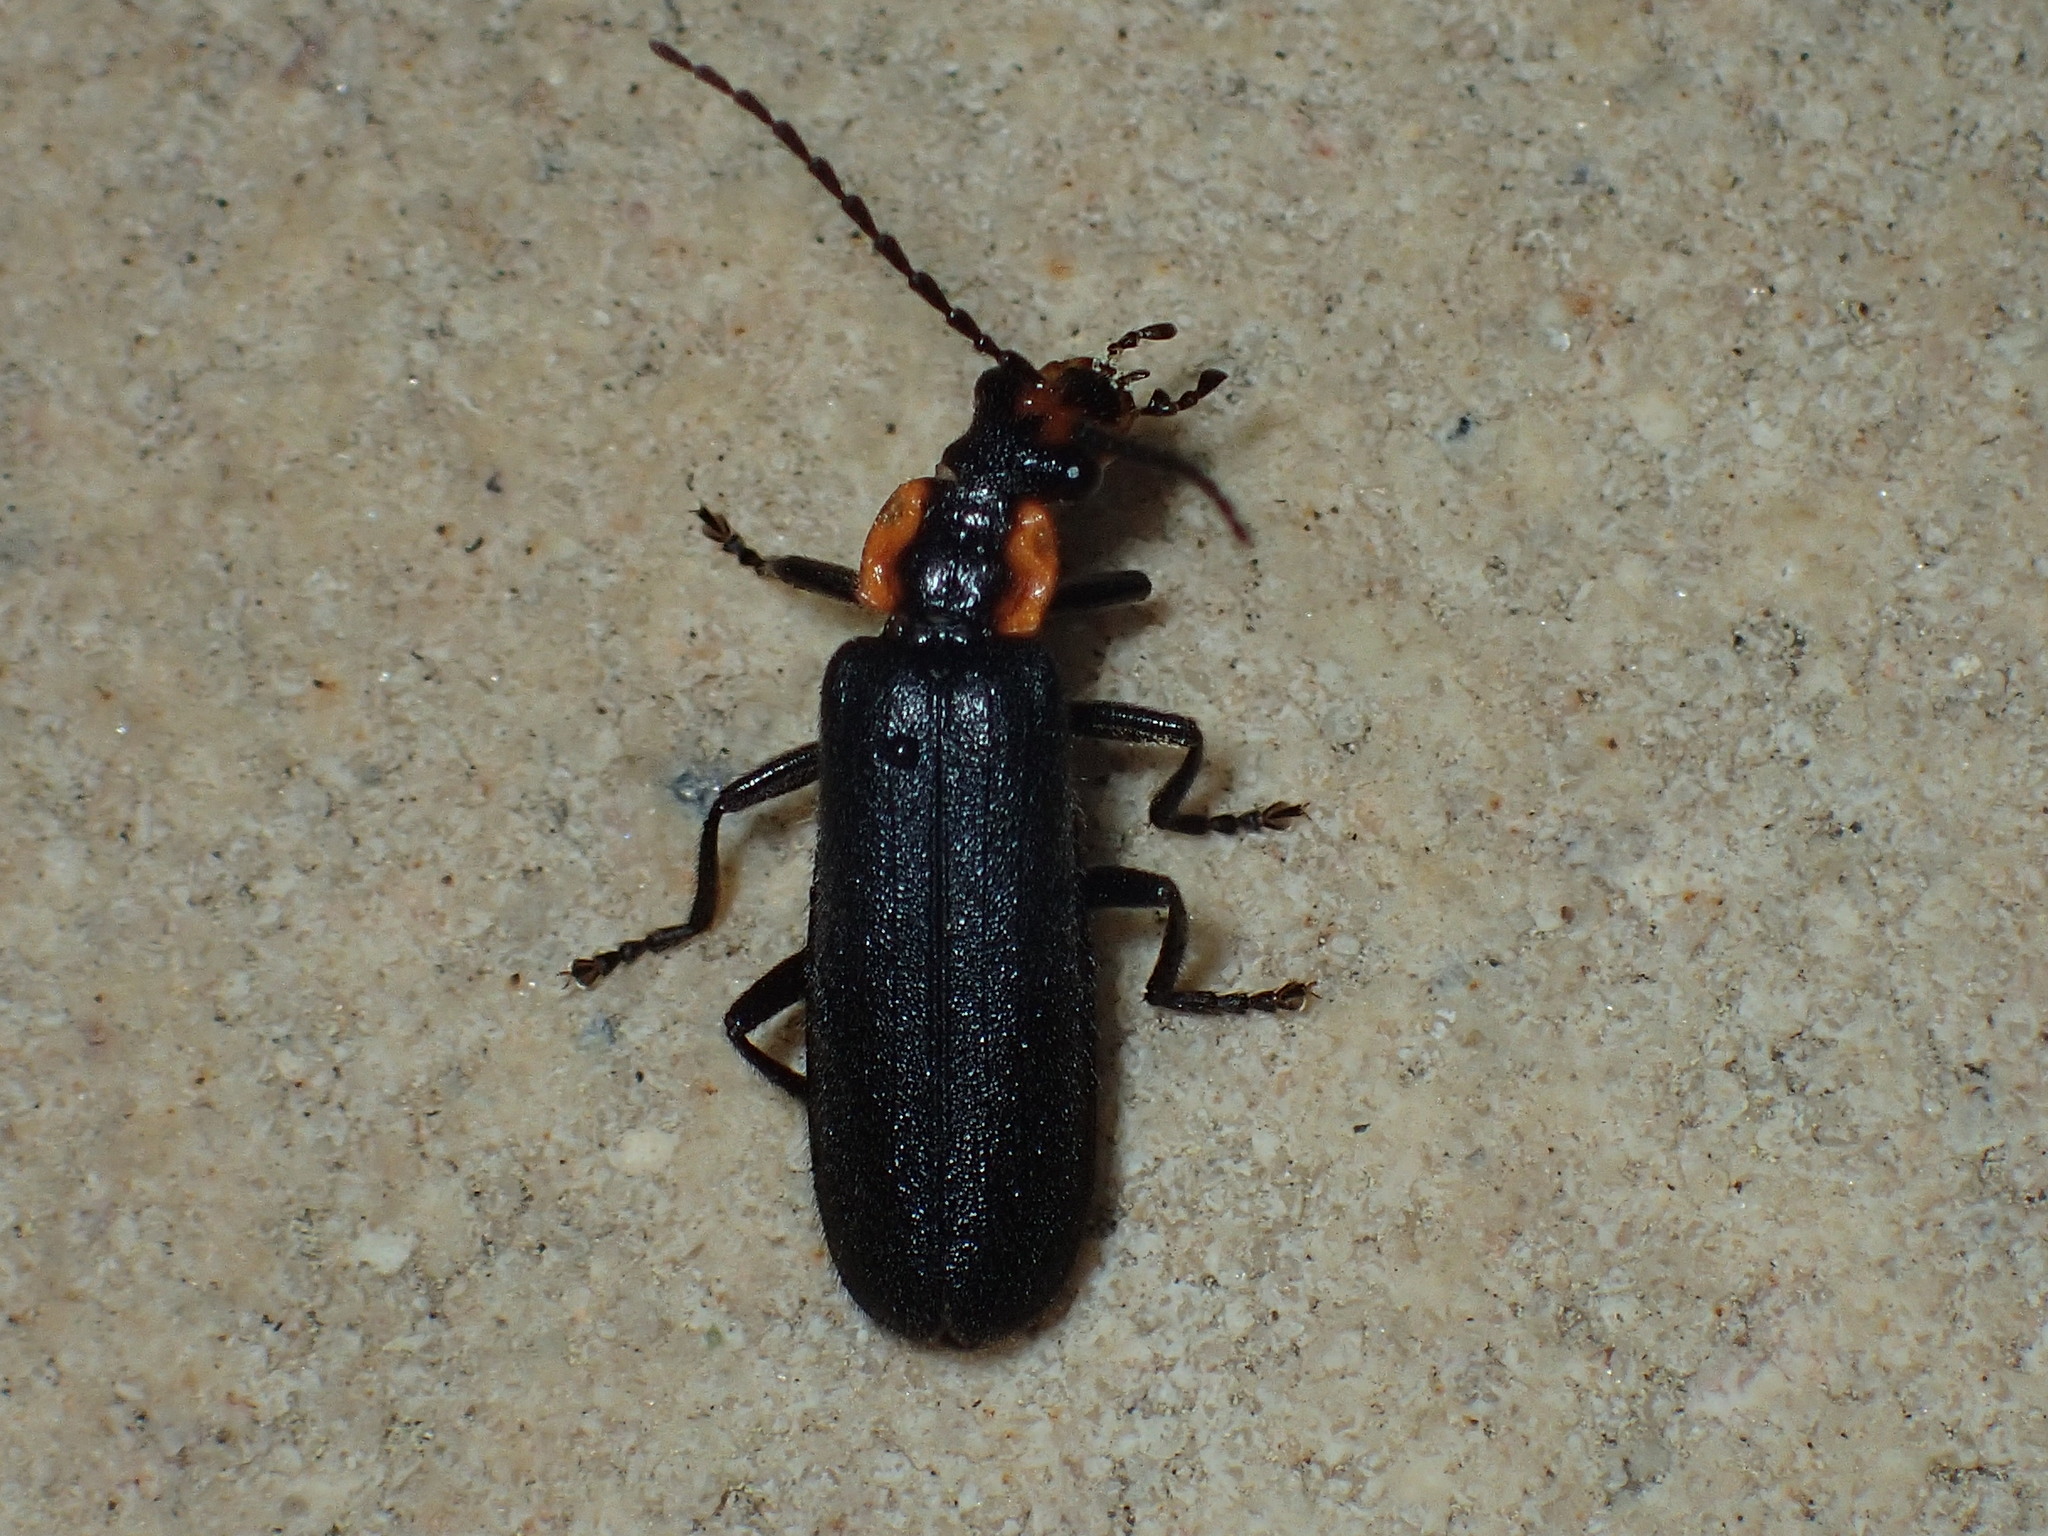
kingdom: Animalia
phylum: Arthropoda
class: Insecta
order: Coleoptera
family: Cantharidae
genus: Podabrus
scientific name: Podabrus frater
